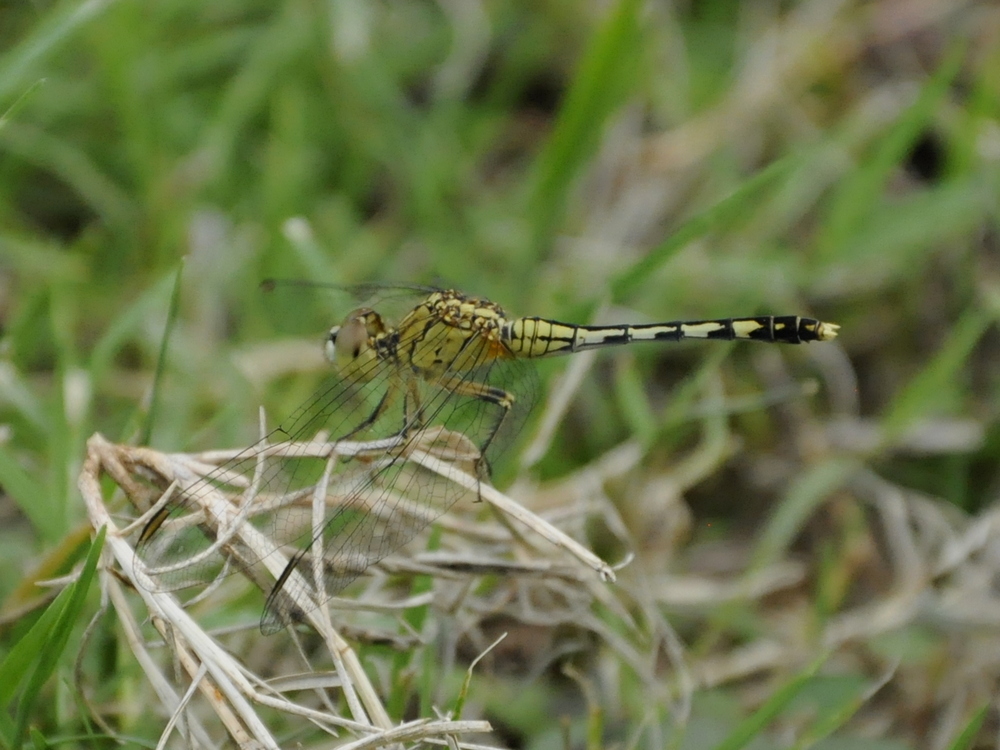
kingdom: Animalia
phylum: Arthropoda
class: Insecta
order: Odonata
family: Libellulidae
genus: Diplacodes
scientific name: Diplacodes trivialis
